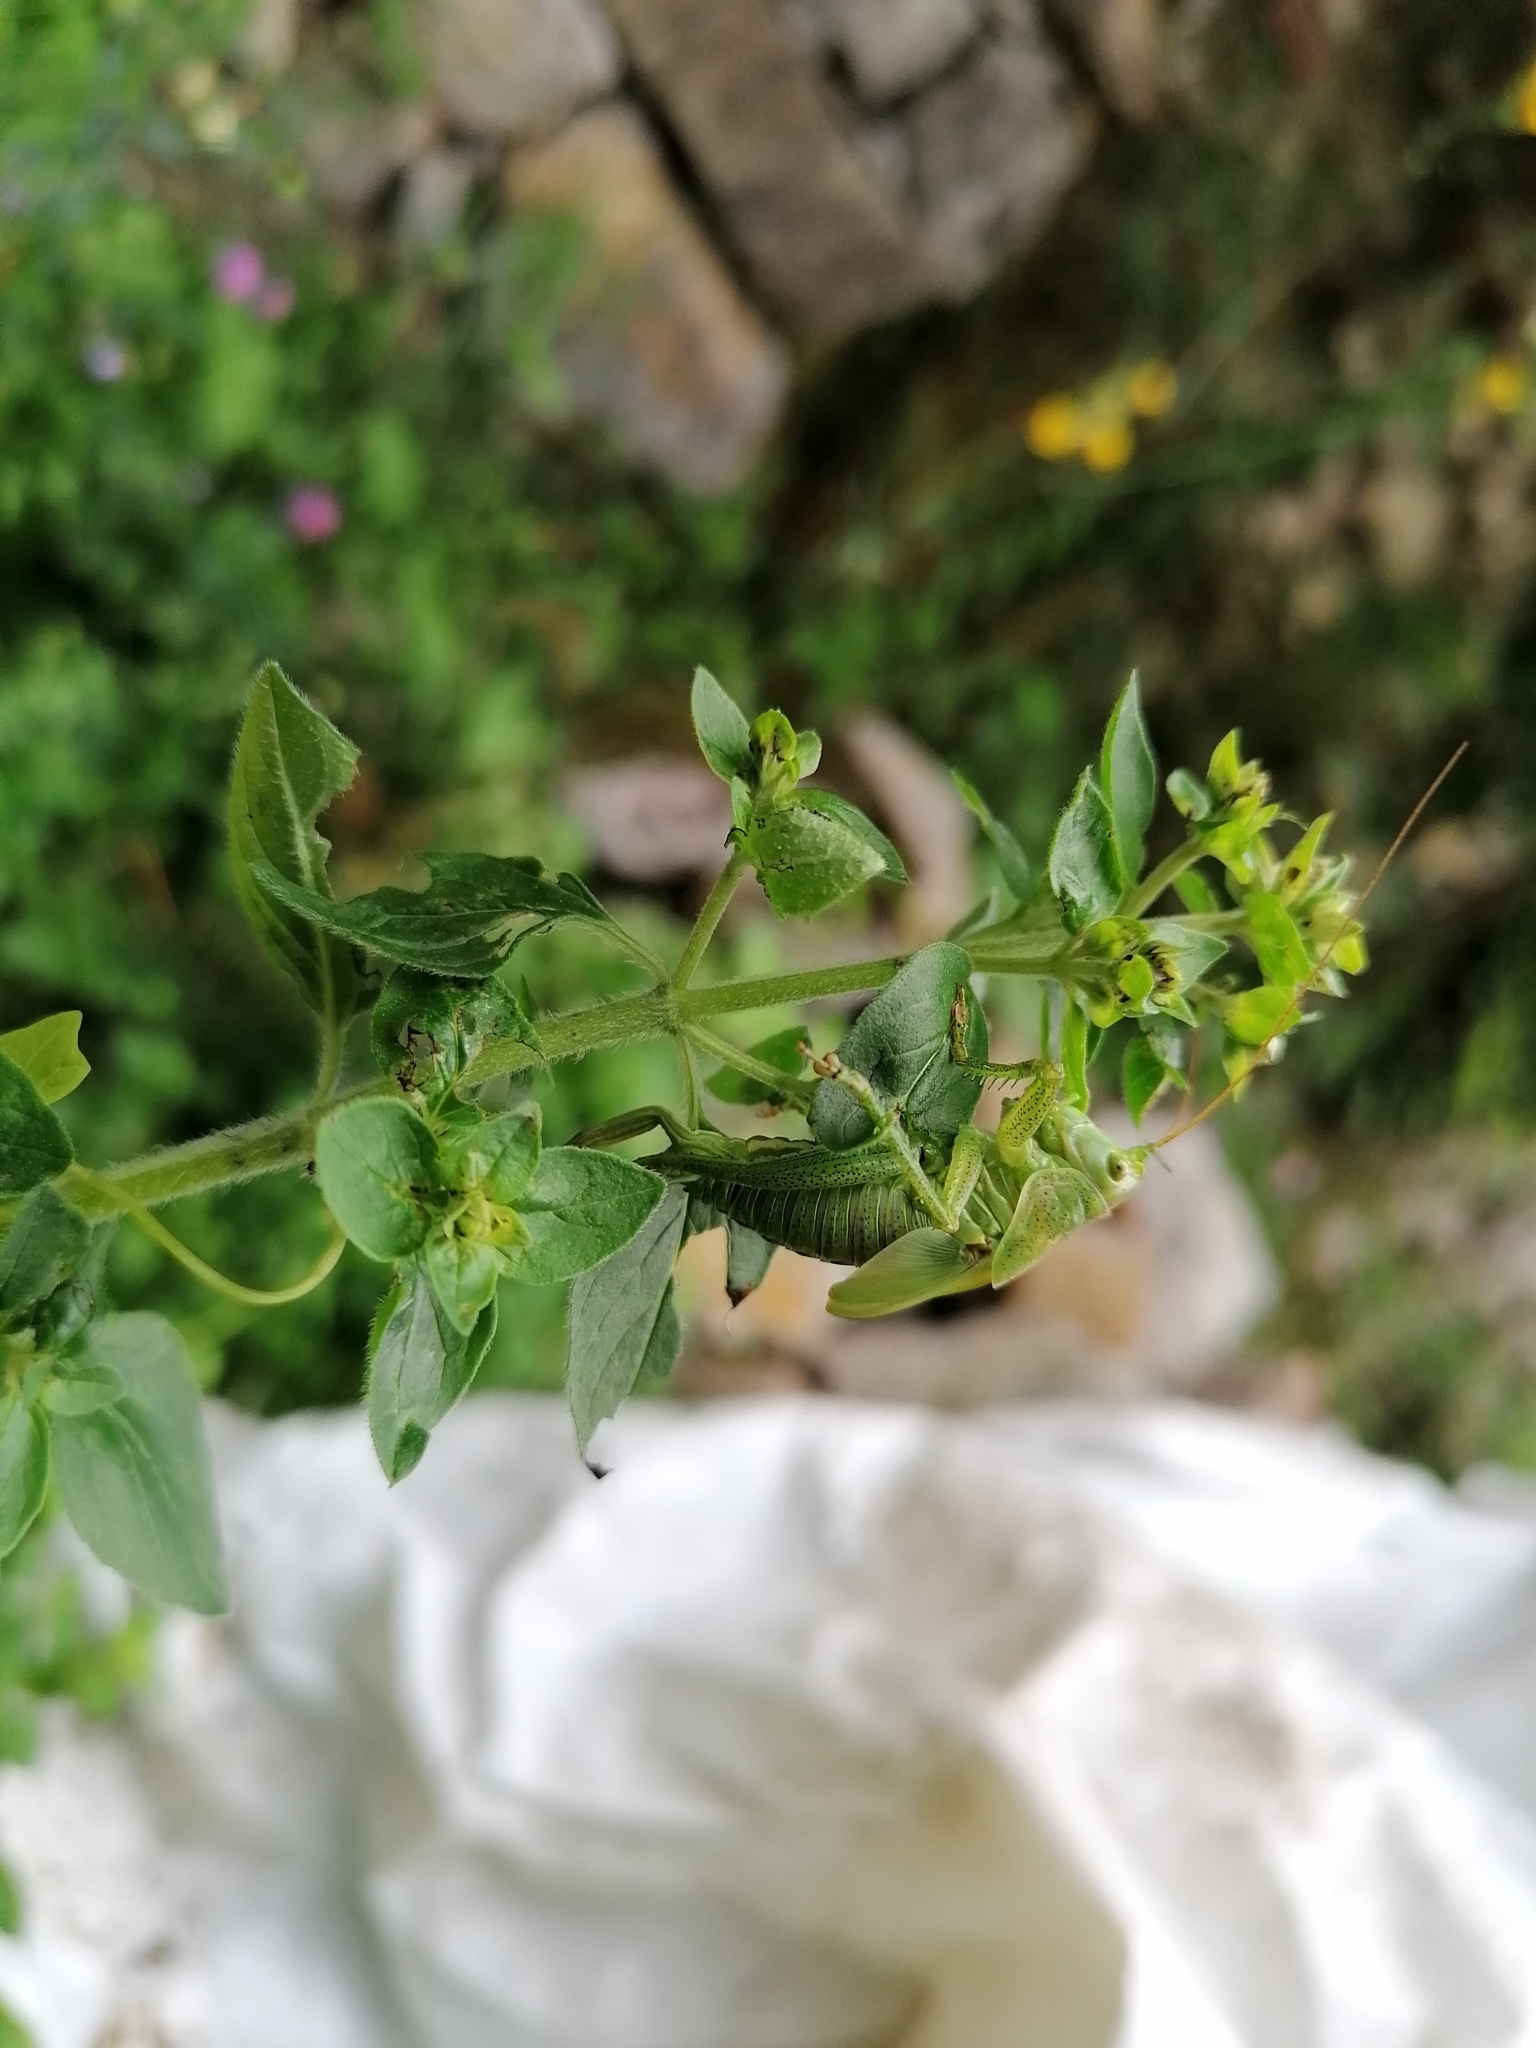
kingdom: Animalia
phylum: Arthropoda
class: Insecta
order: Orthoptera
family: Tettigoniidae
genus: Tettigonia
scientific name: Tettigonia viridissima
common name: Great green bush-cricket
